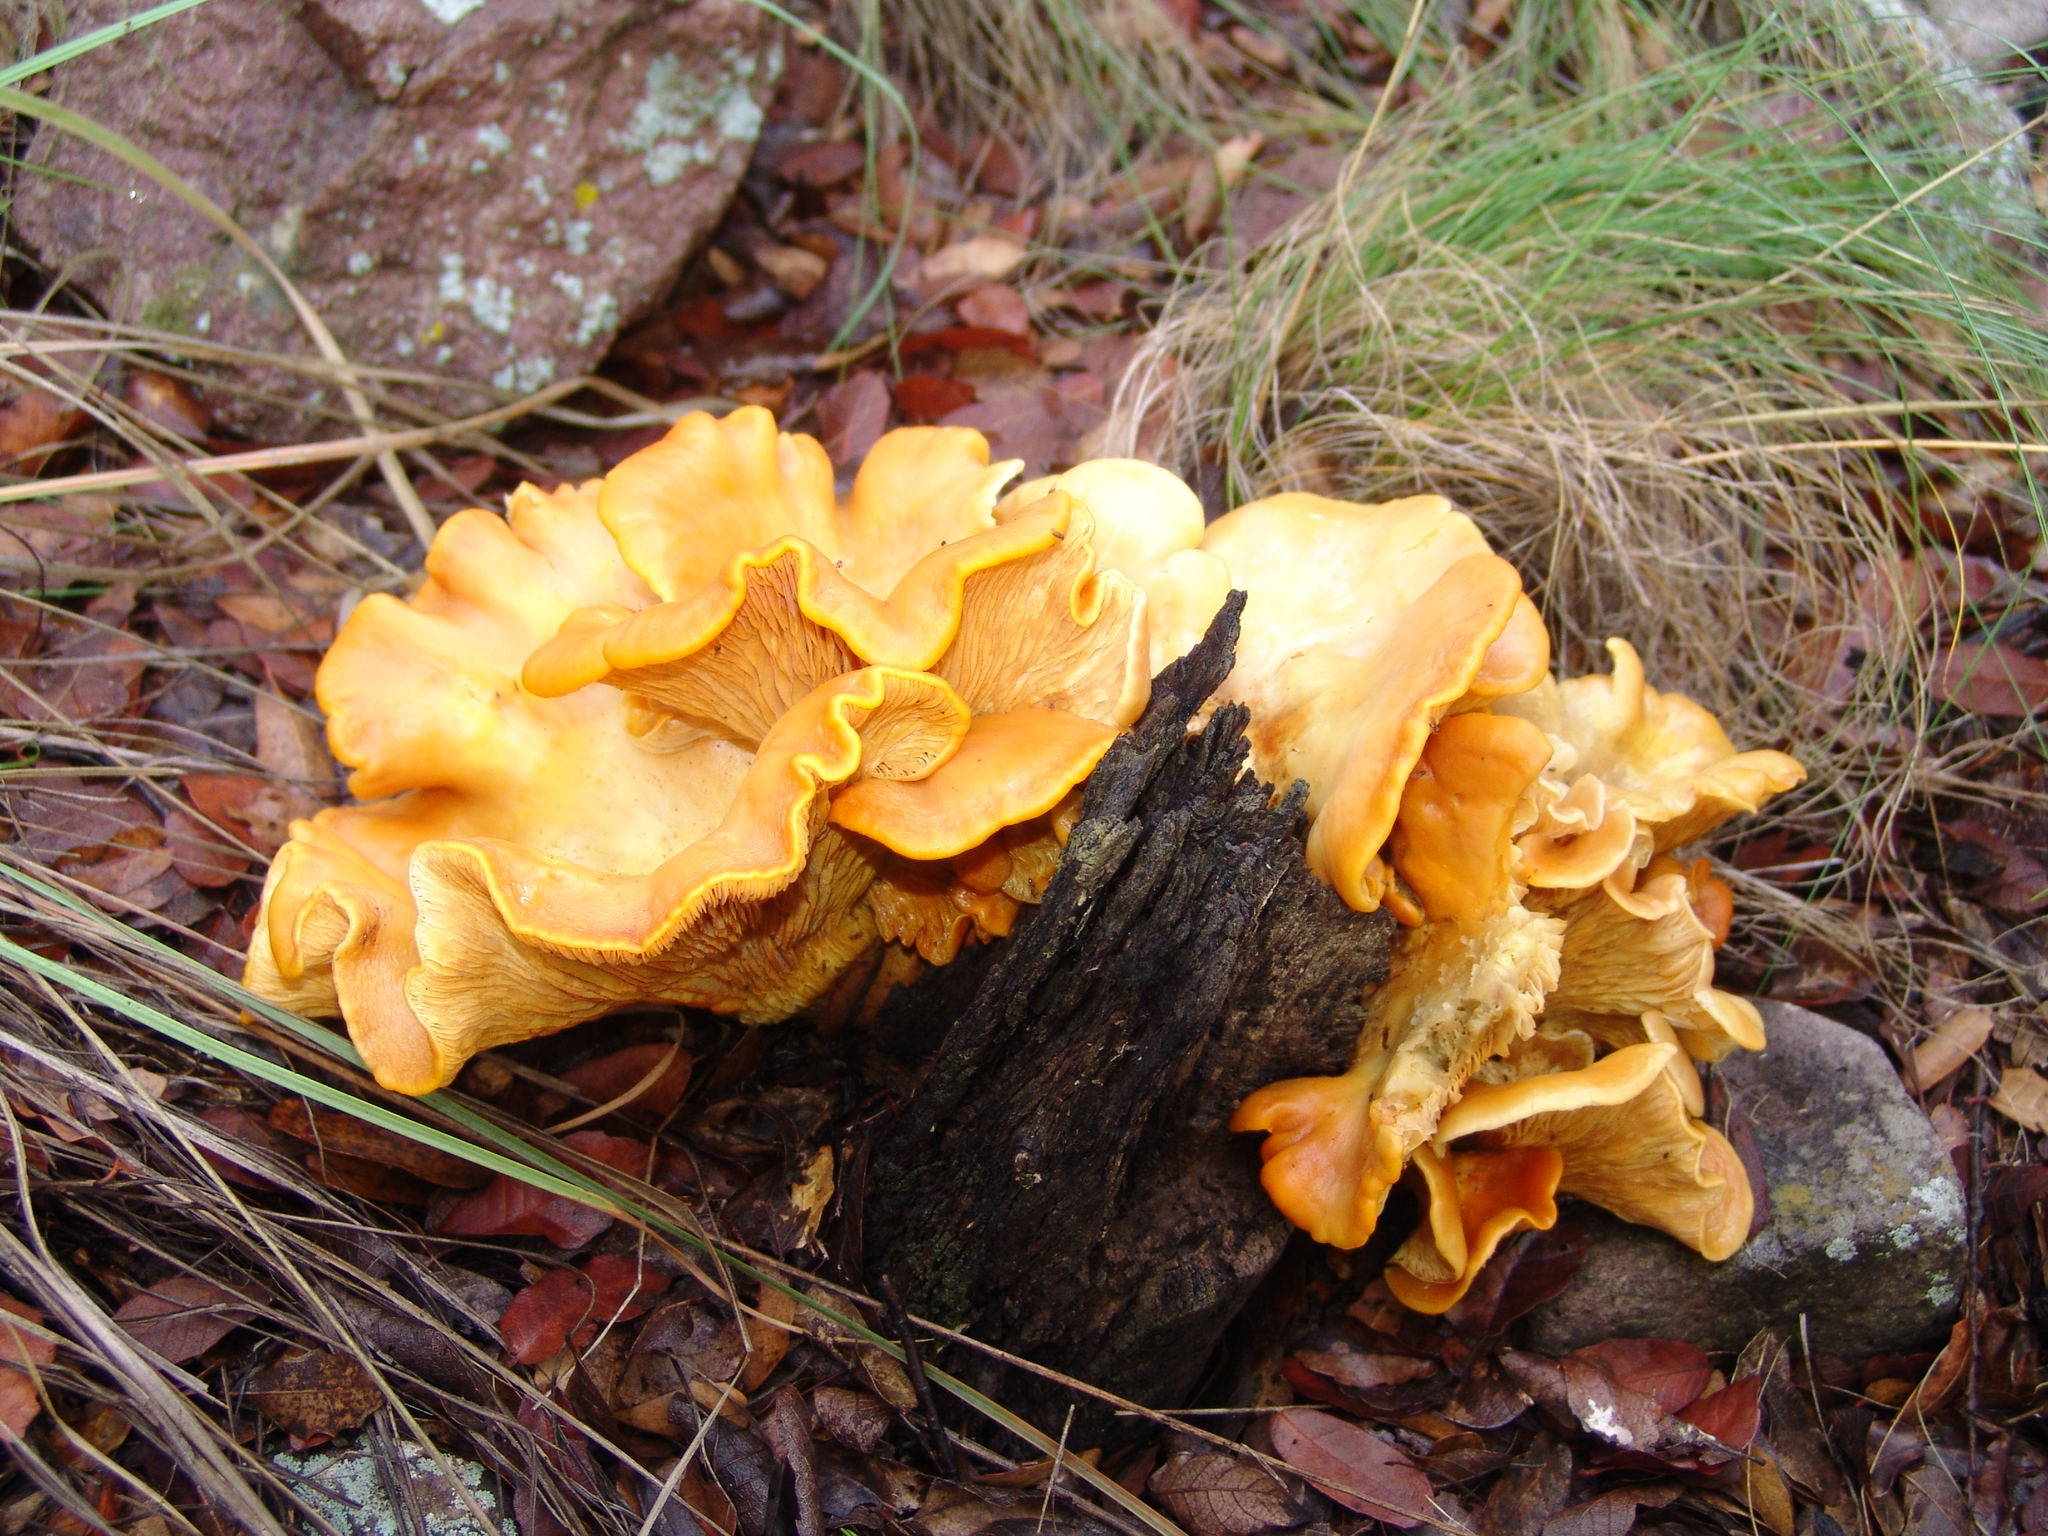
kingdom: Fungi
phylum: Basidiomycota
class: Agaricomycetes
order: Agaricales
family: Omphalotaceae
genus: Omphalotus
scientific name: Omphalotus subilludens
